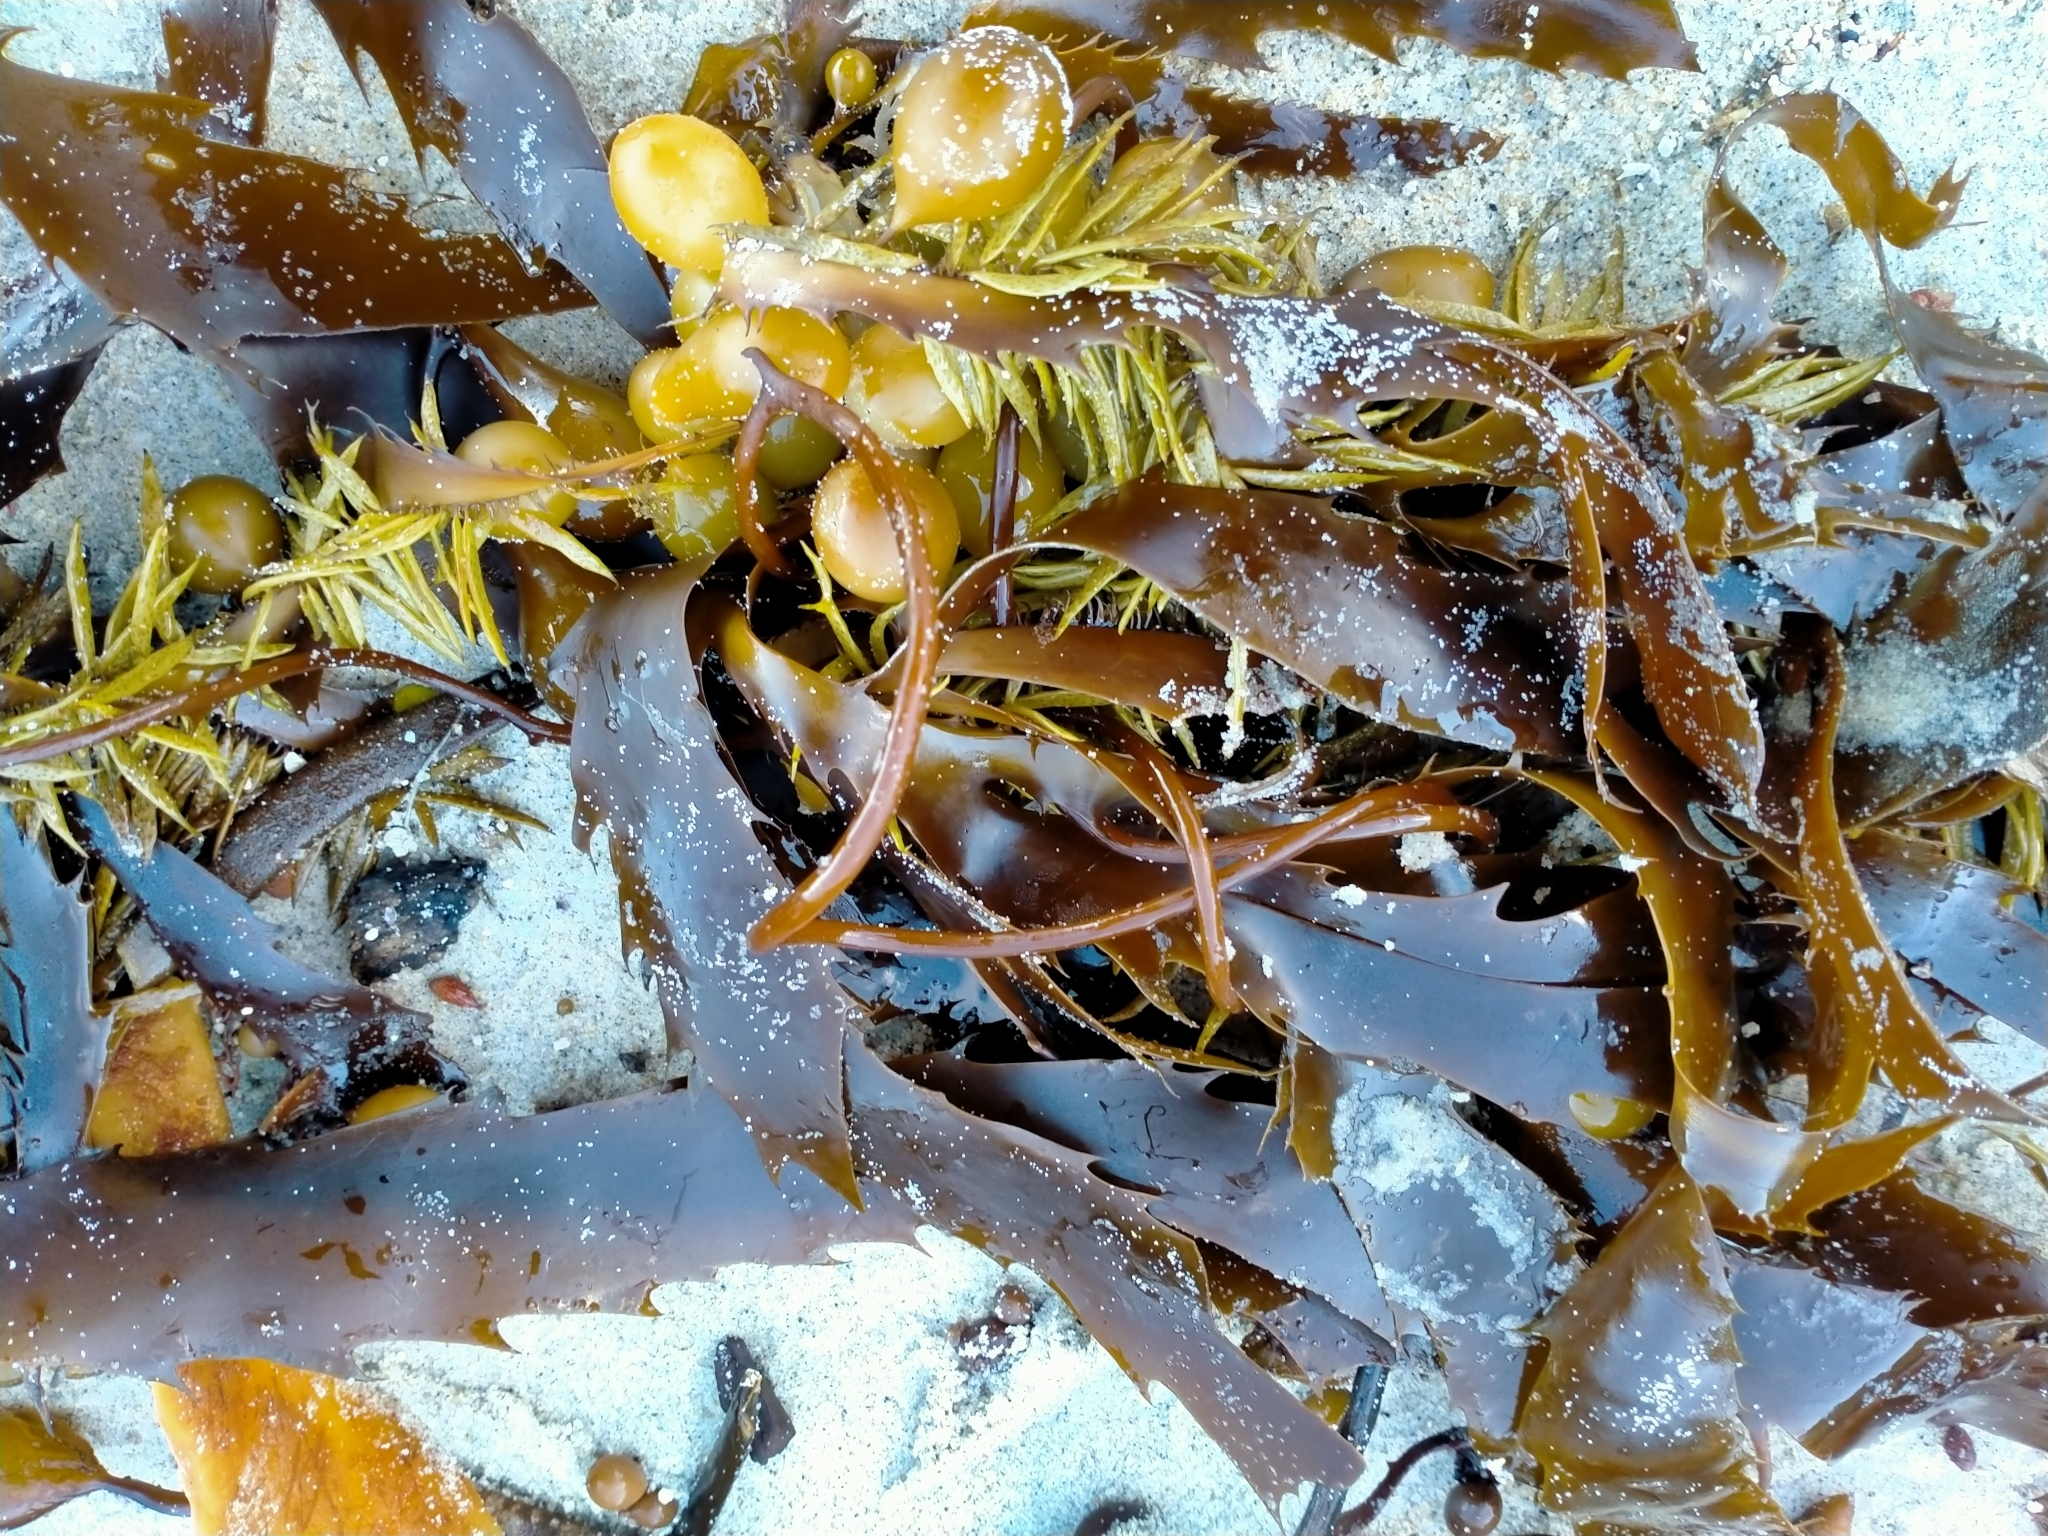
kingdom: Chromista
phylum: Ochrophyta
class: Phaeophyceae
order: Fucales
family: Seirococcaceae
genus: Marginariella
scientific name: Marginariella urvilliana
